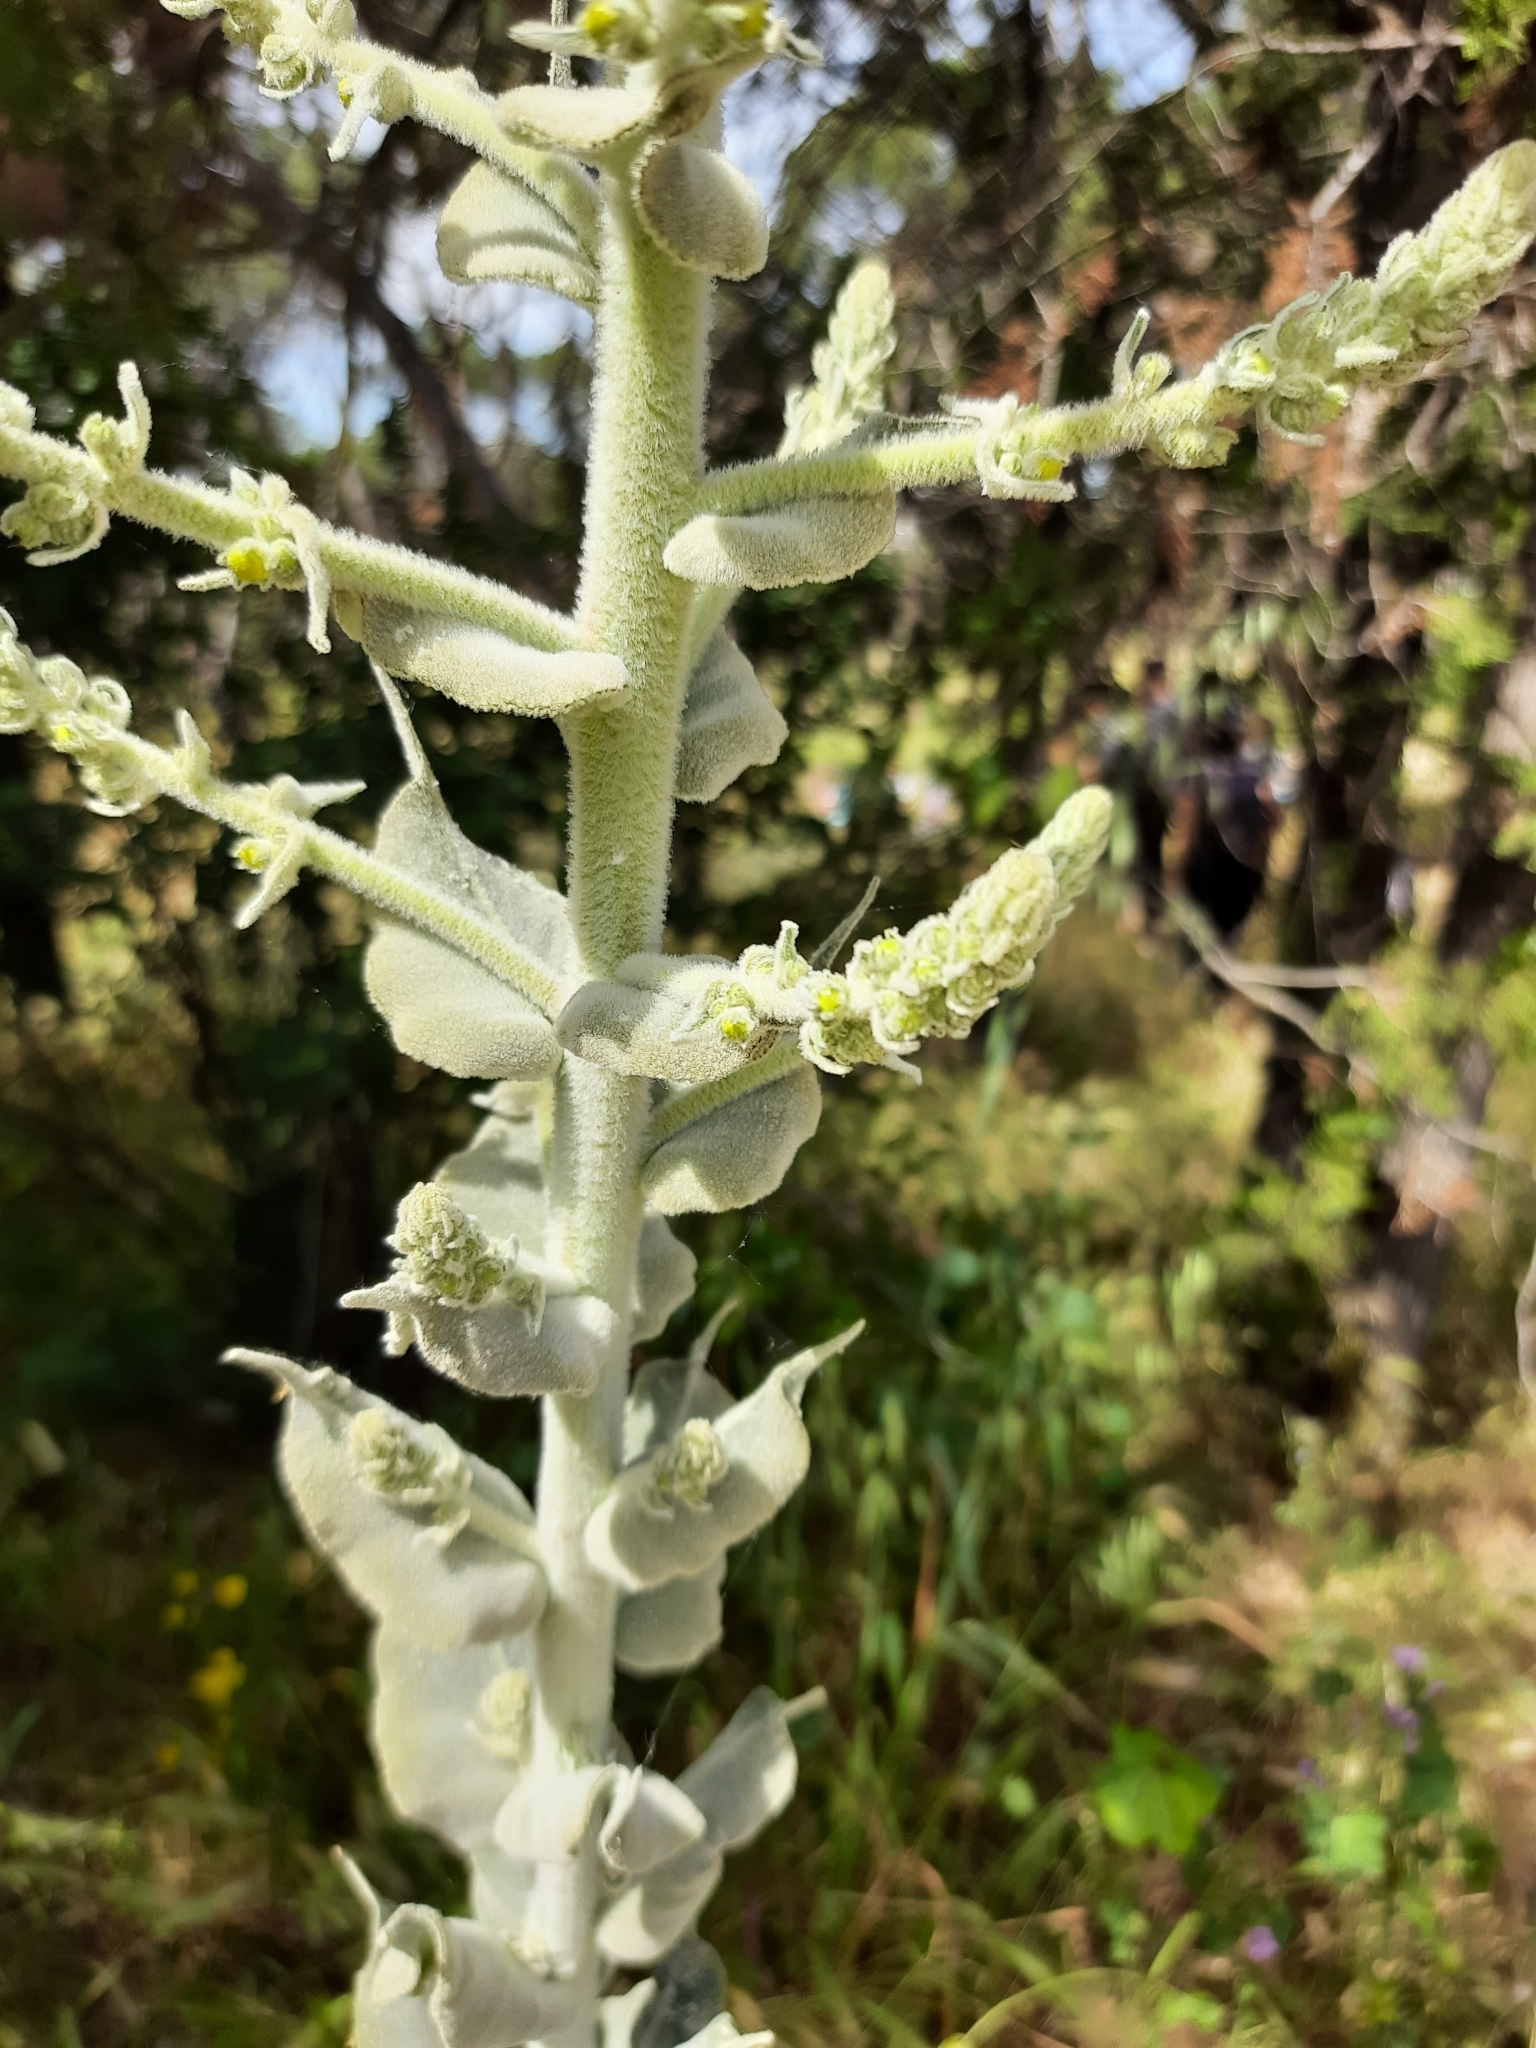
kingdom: Plantae
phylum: Tracheophyta
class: Magnoliopsida
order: Lamiales
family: Scrophulariaceae
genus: Verbascum
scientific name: Verbascum pulverulentum
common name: Broad-leaf mullein
